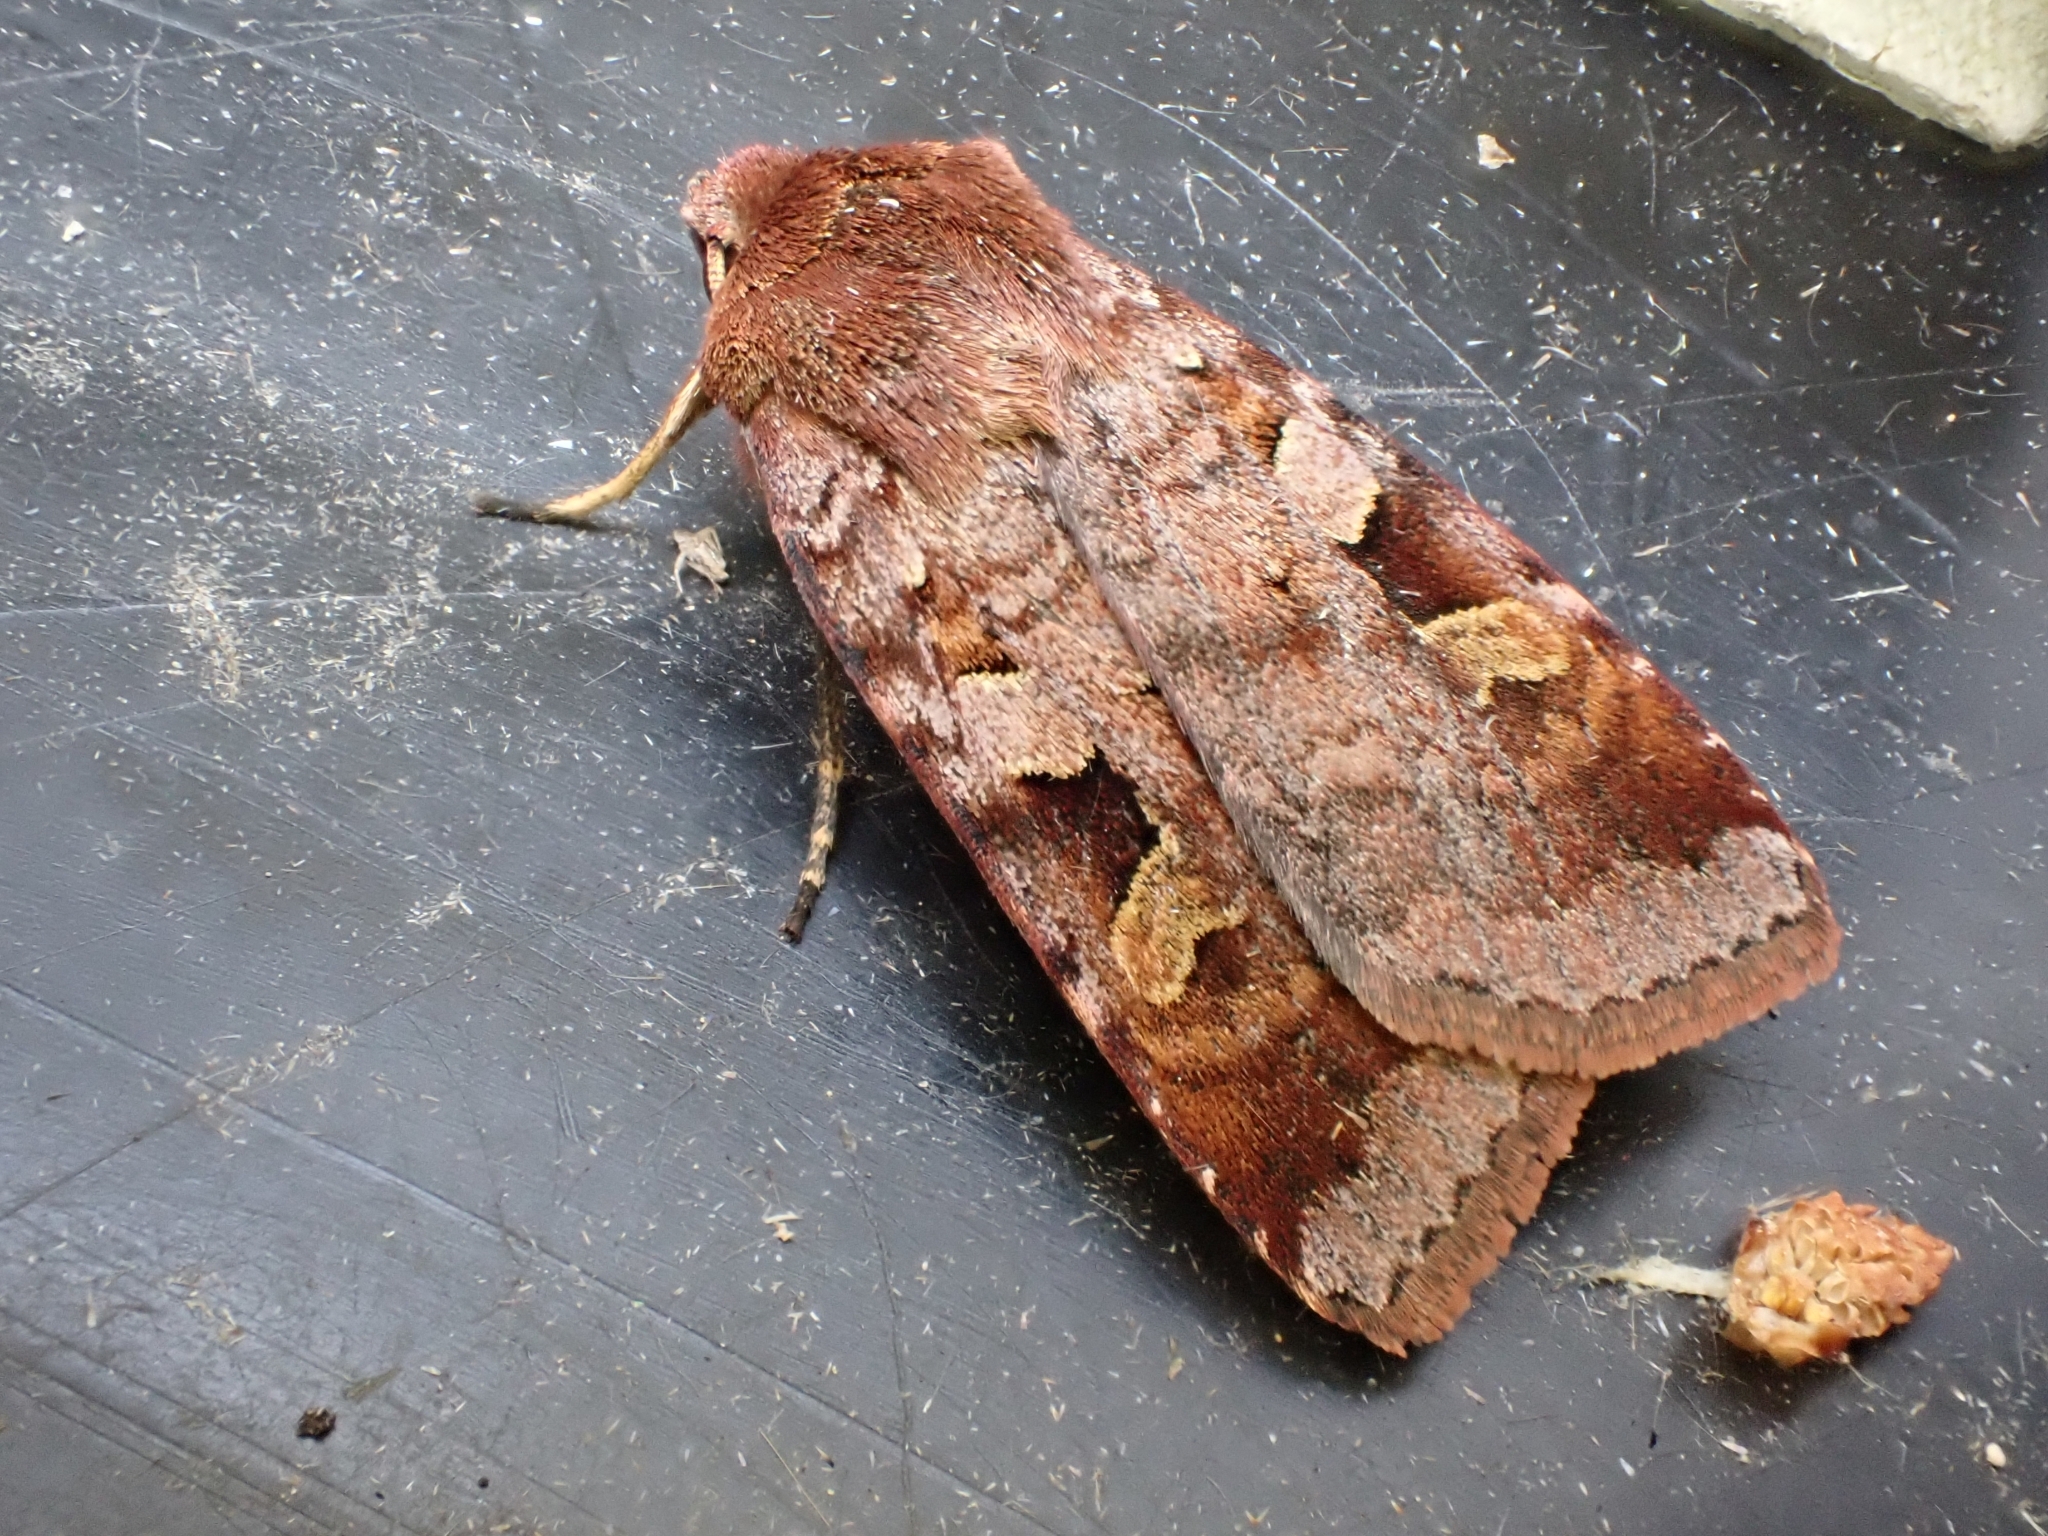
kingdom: Animalia
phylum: Arthropoda
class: Insecta
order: Lepidoptera
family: Noctuidae
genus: Diarsia
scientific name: Diarsia brunnea
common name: Purple clay
